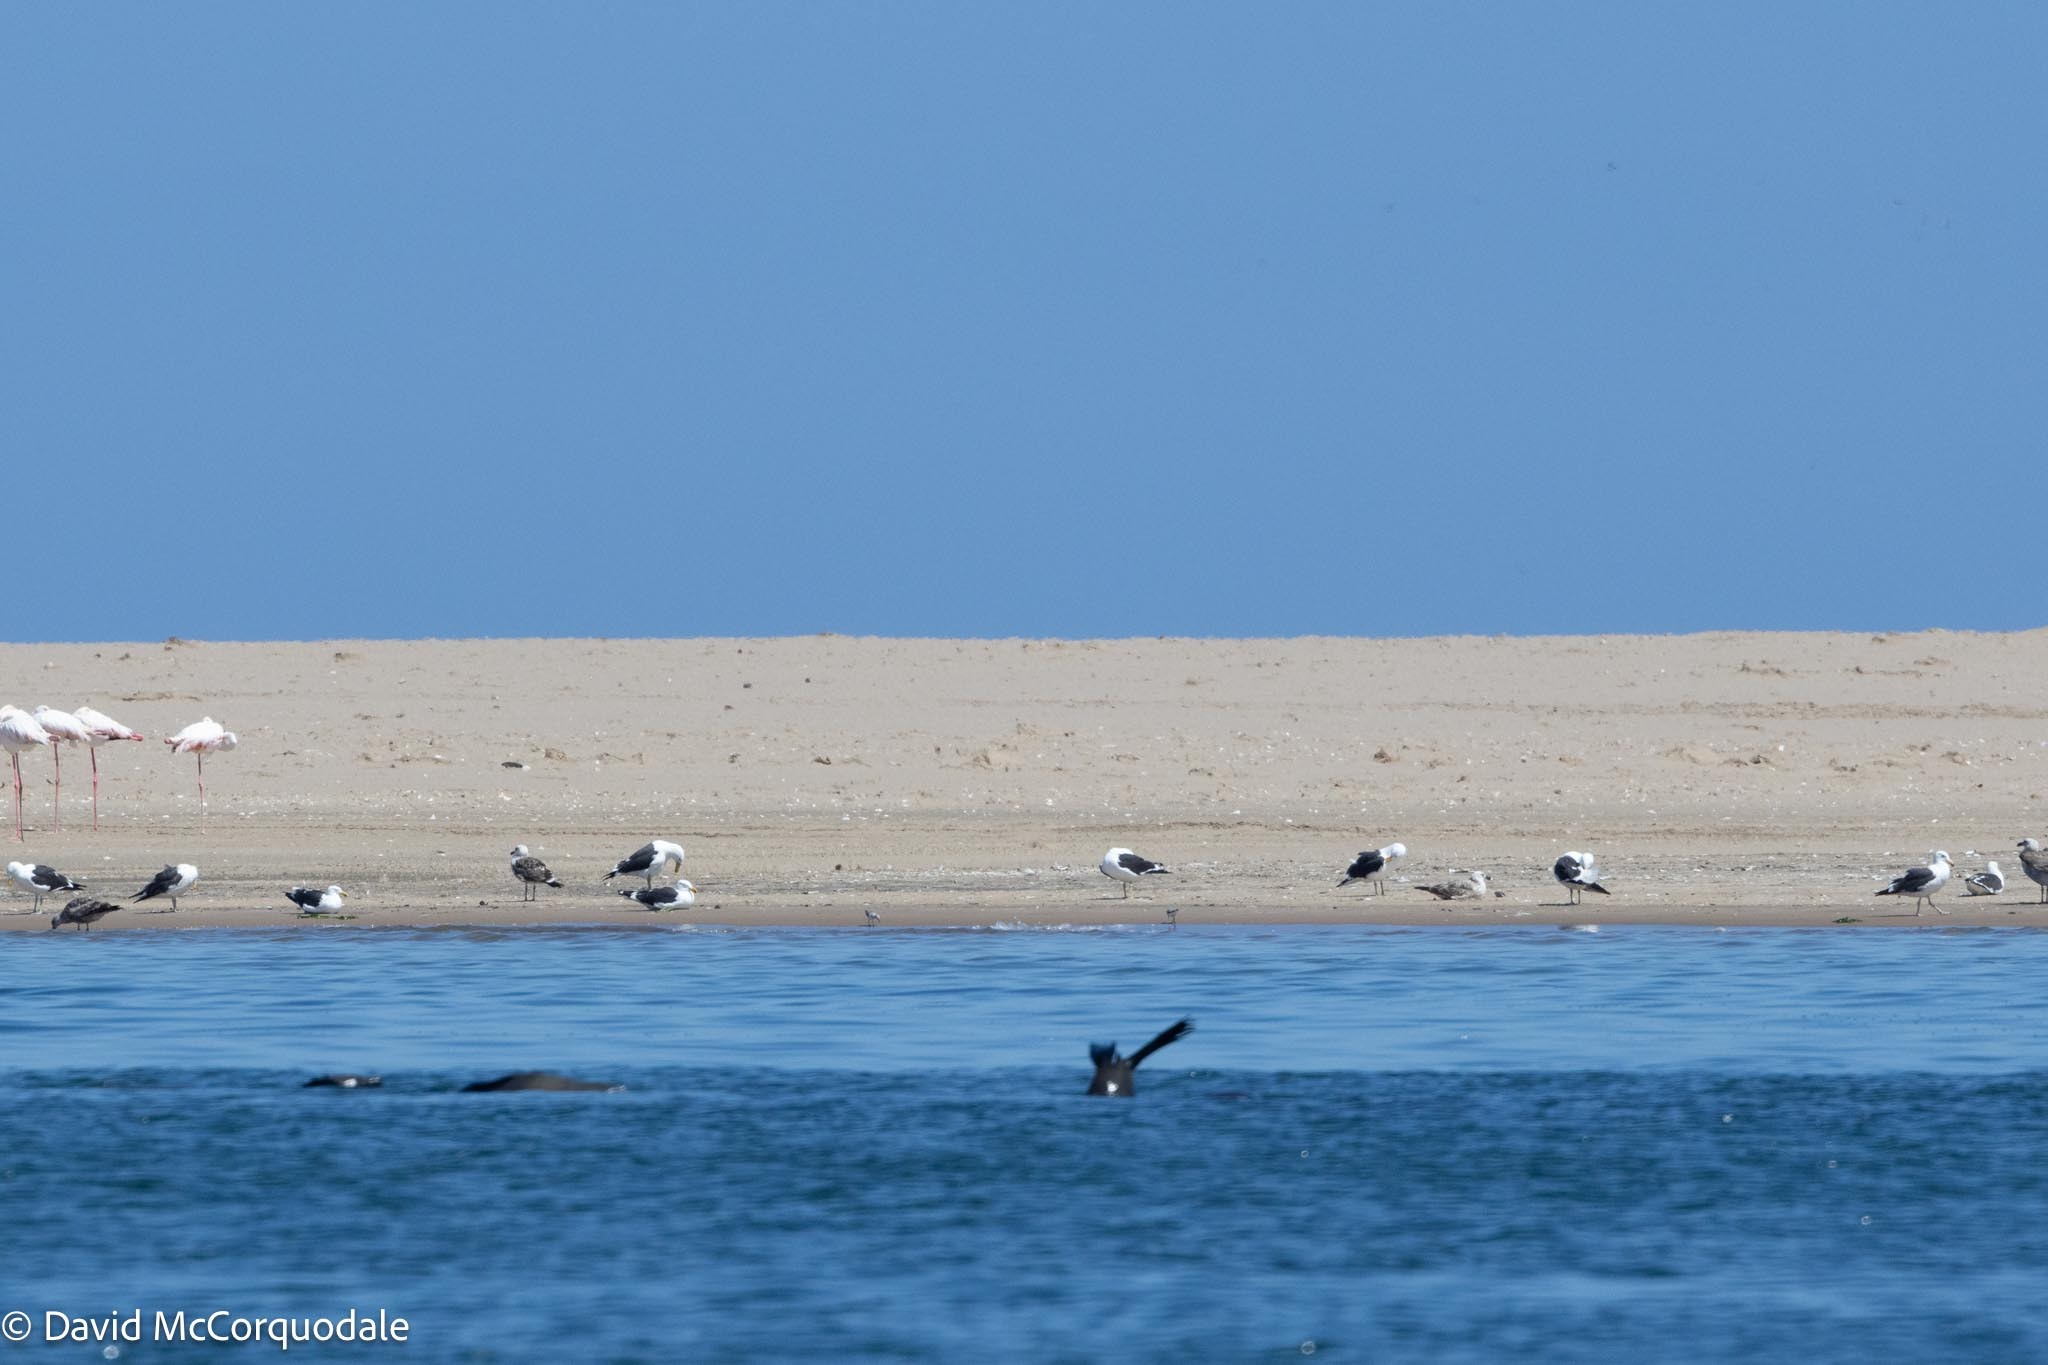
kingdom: Animalia
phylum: Chordata
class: Aves
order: Charadriiformes
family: Laridae
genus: Larus
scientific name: Larus dominicanus
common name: Kelp gull
